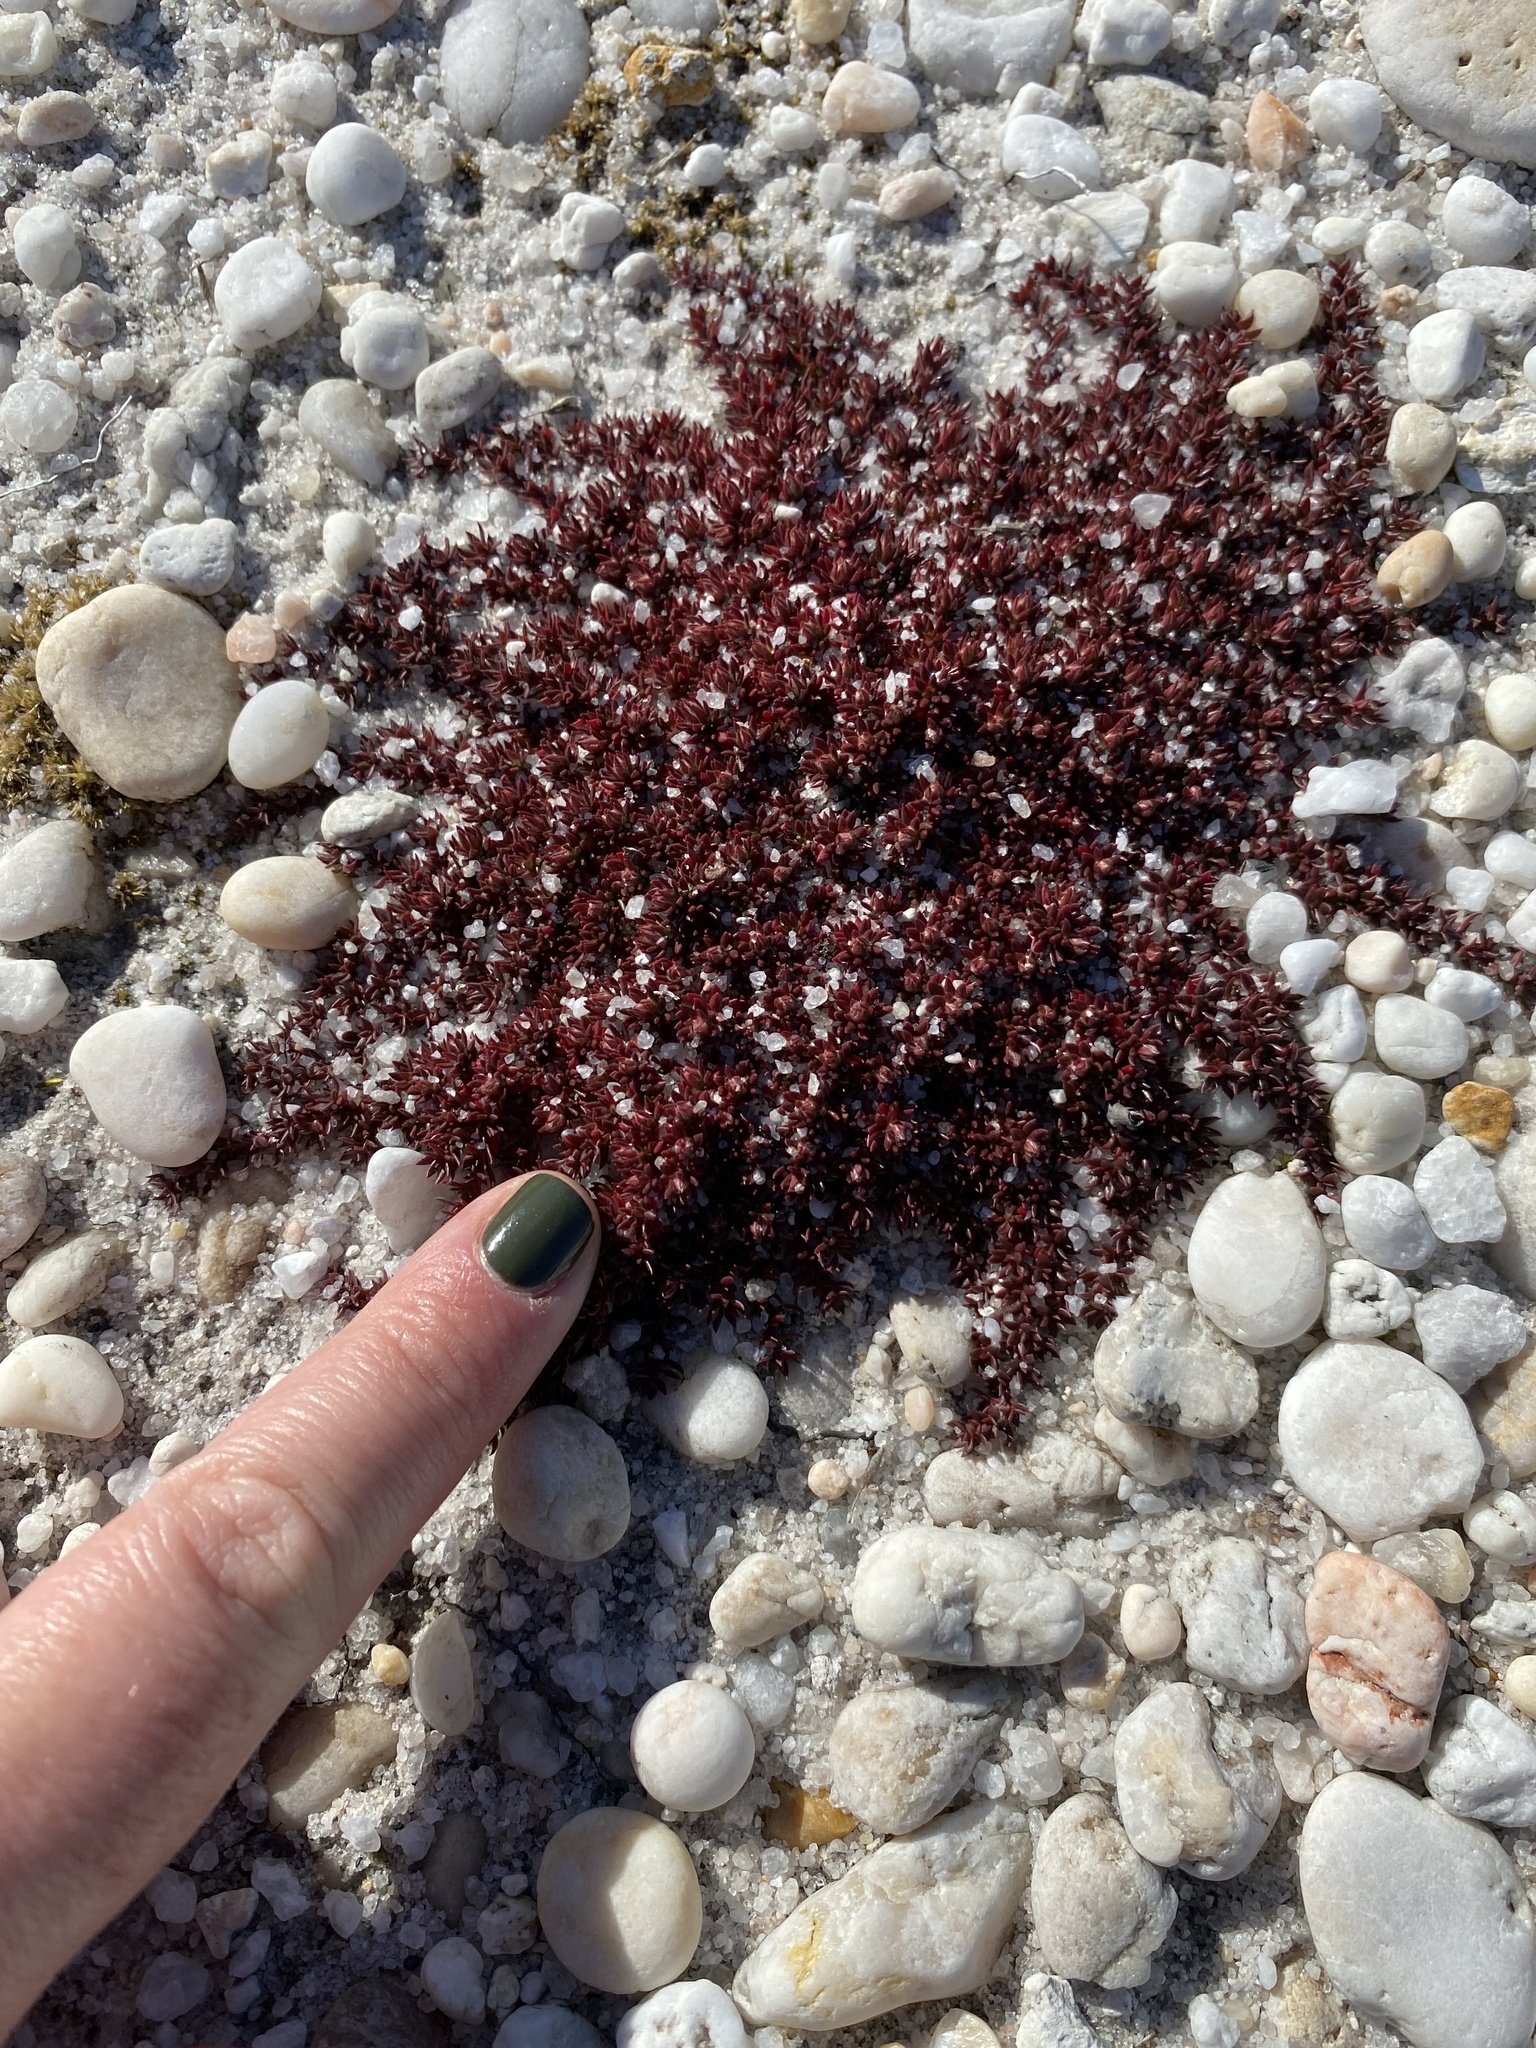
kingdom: Plantae
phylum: Tracheophyta
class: Magnoliopsida
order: Ericales
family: Diapensiaceae
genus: Pyxidanthera
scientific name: Pyxidanthera barbulata
